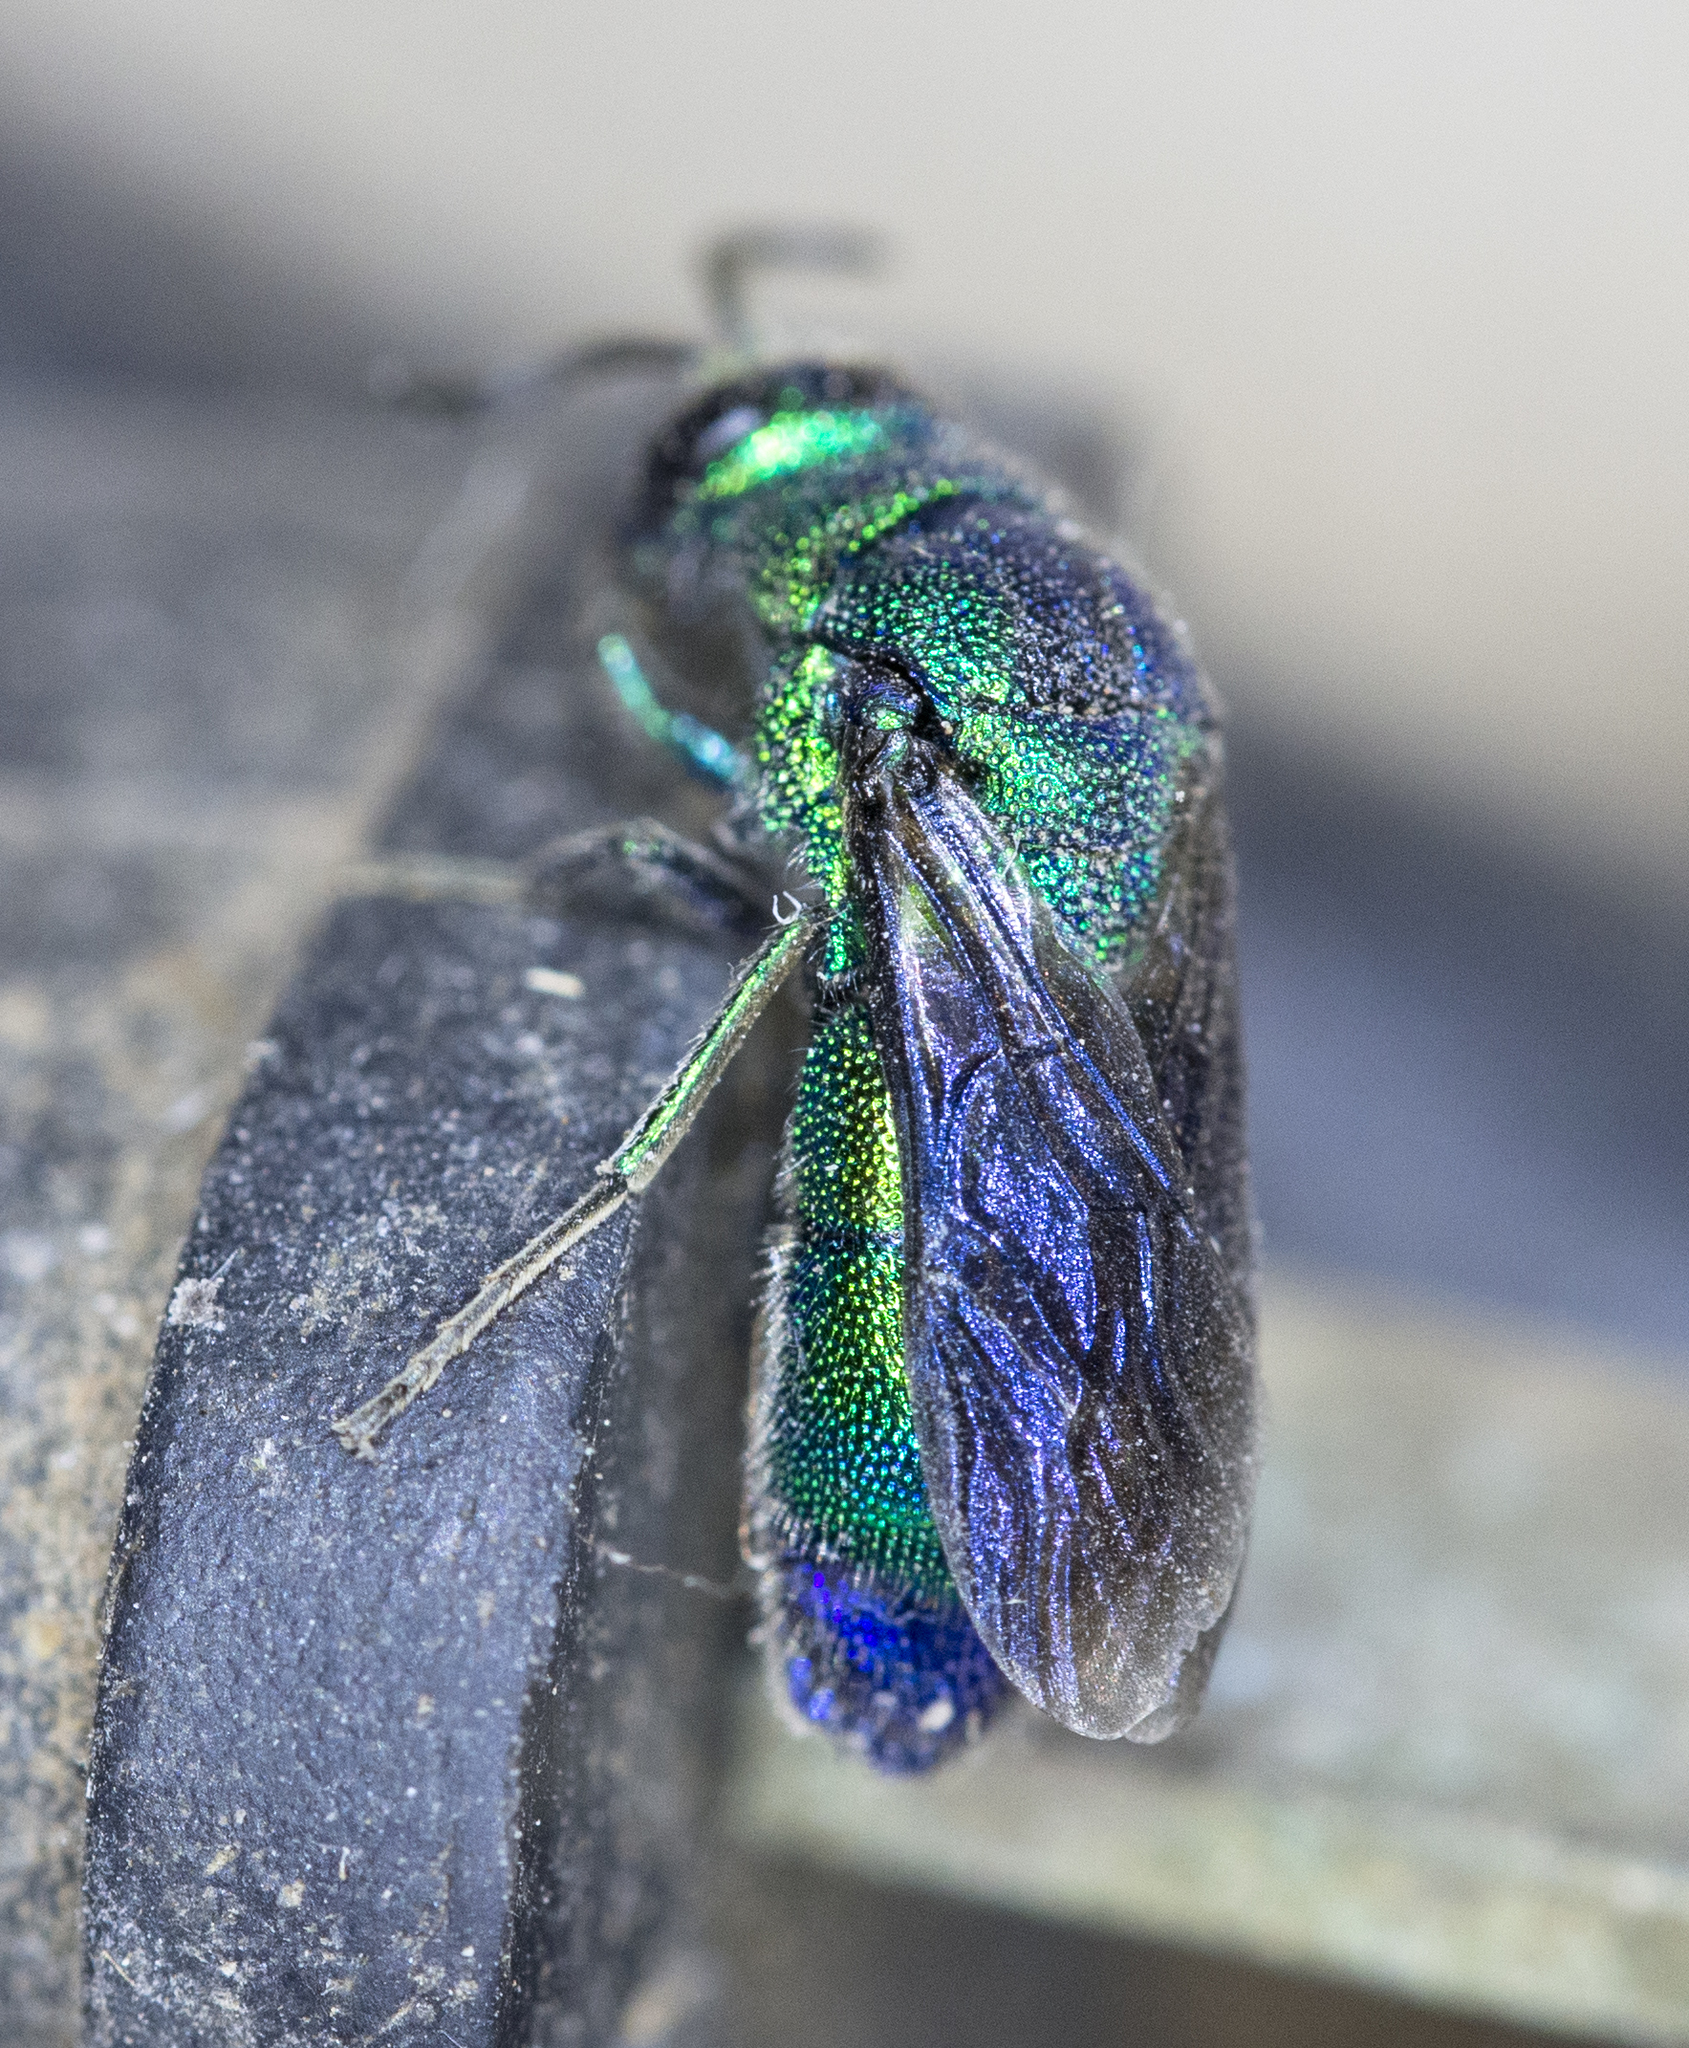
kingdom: Animalia
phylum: Arthropoda
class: Insecta
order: Hymenoptera
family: Chrysididae
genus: Chrysis
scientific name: Chrysis angolensis
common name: Cuckoo wasp
